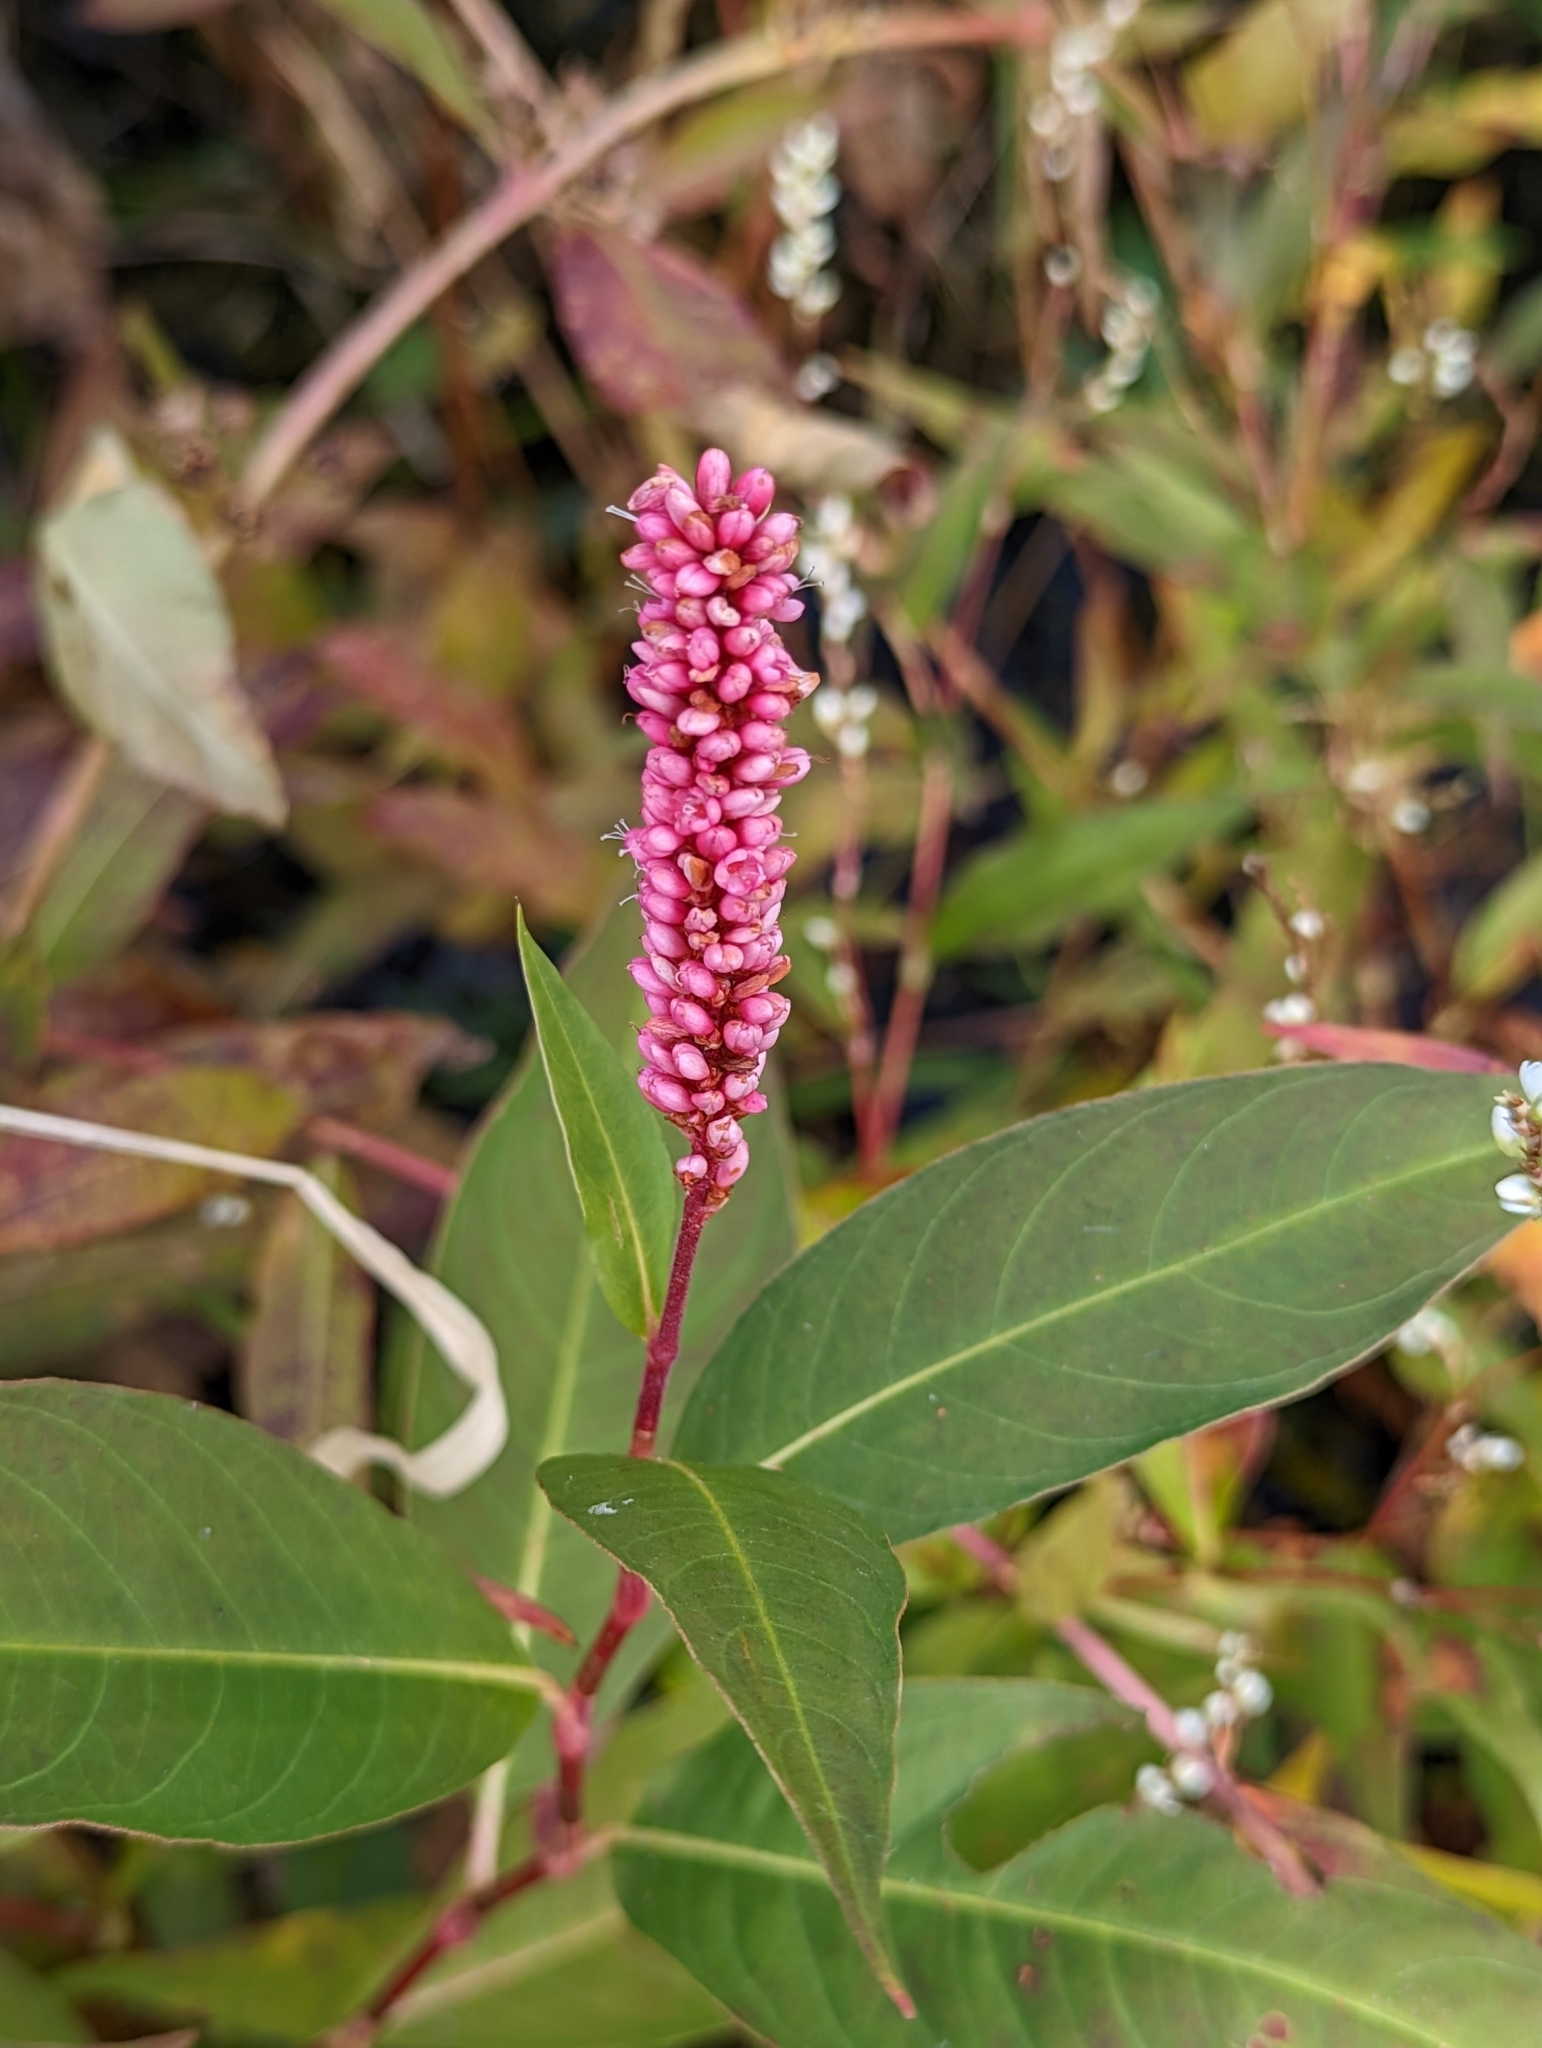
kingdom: Plantae
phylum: Tracheophyta
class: Magnoliopsida
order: Caryophyllales
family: Polygonaceae
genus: Persicaria
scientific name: Persicaria amphibia
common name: Amphibious bistort
